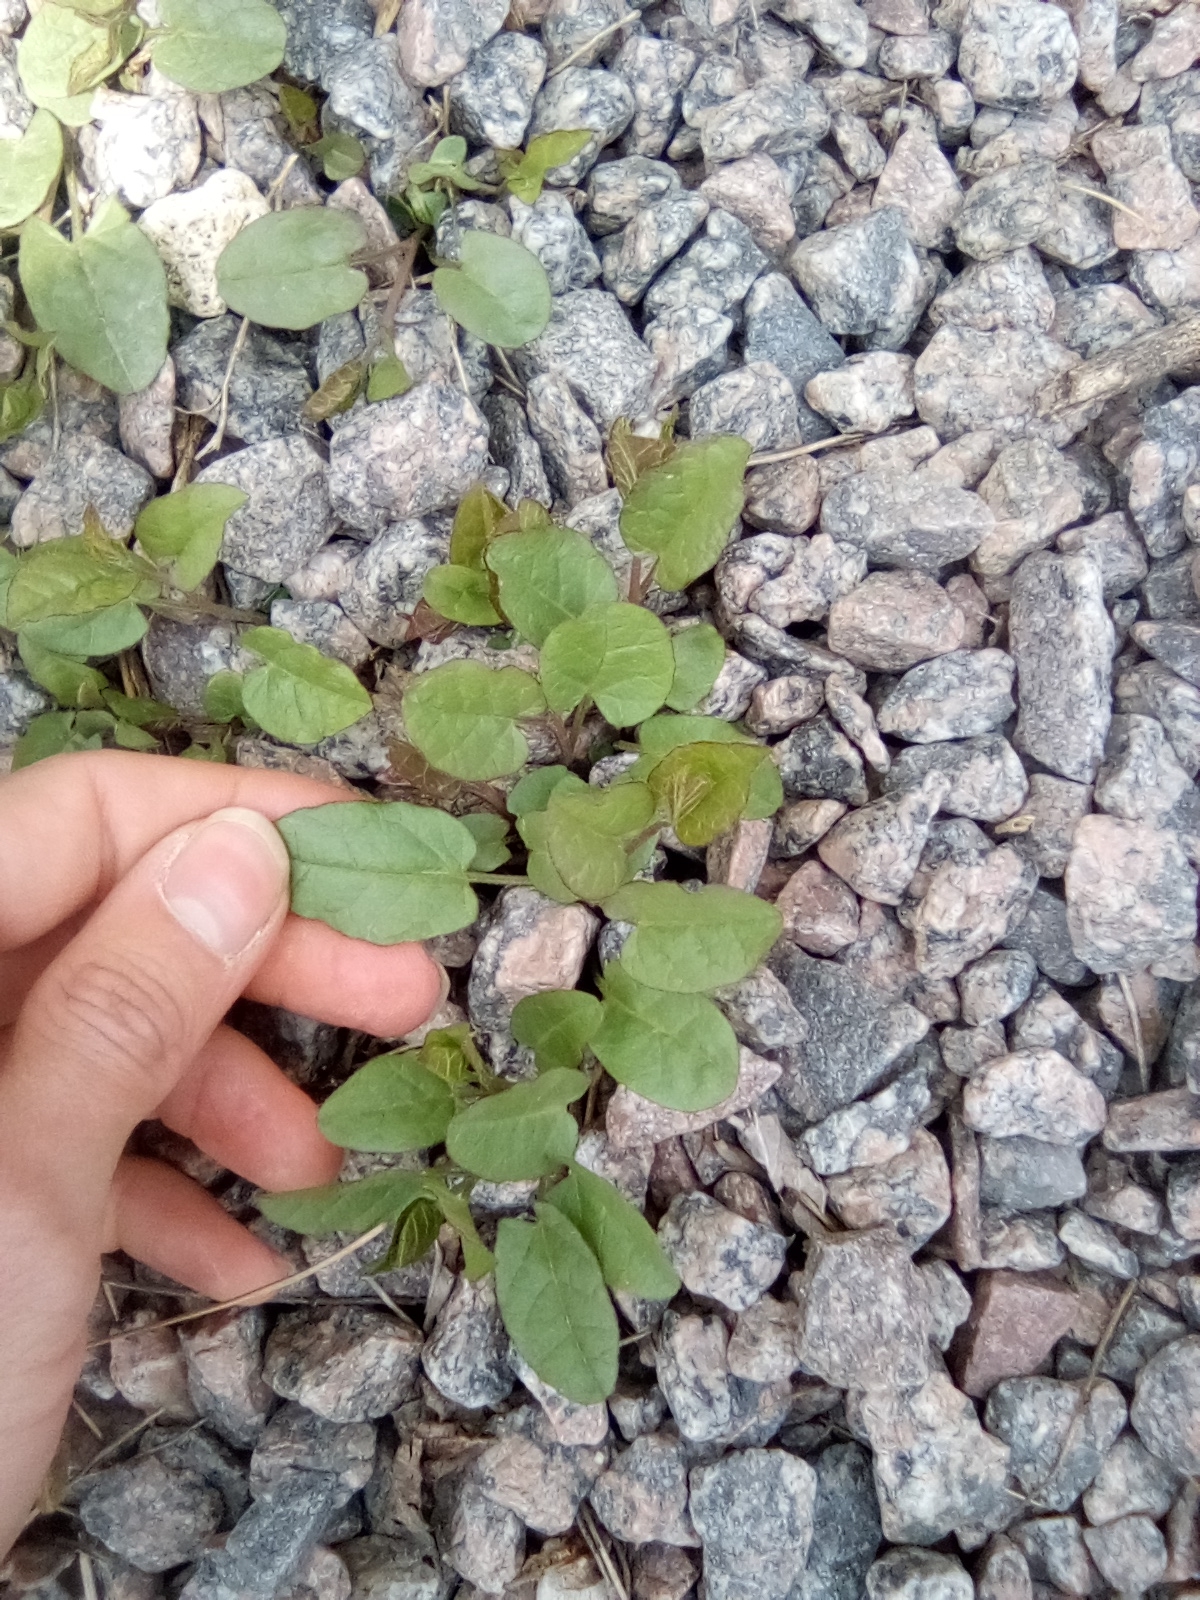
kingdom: Plantae
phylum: Tracheophyta
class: Magnoliopsida
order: Solanales
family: Convolvulaceae
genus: Convolvulus
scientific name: Convolvulus arvensis
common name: Field bindweed
